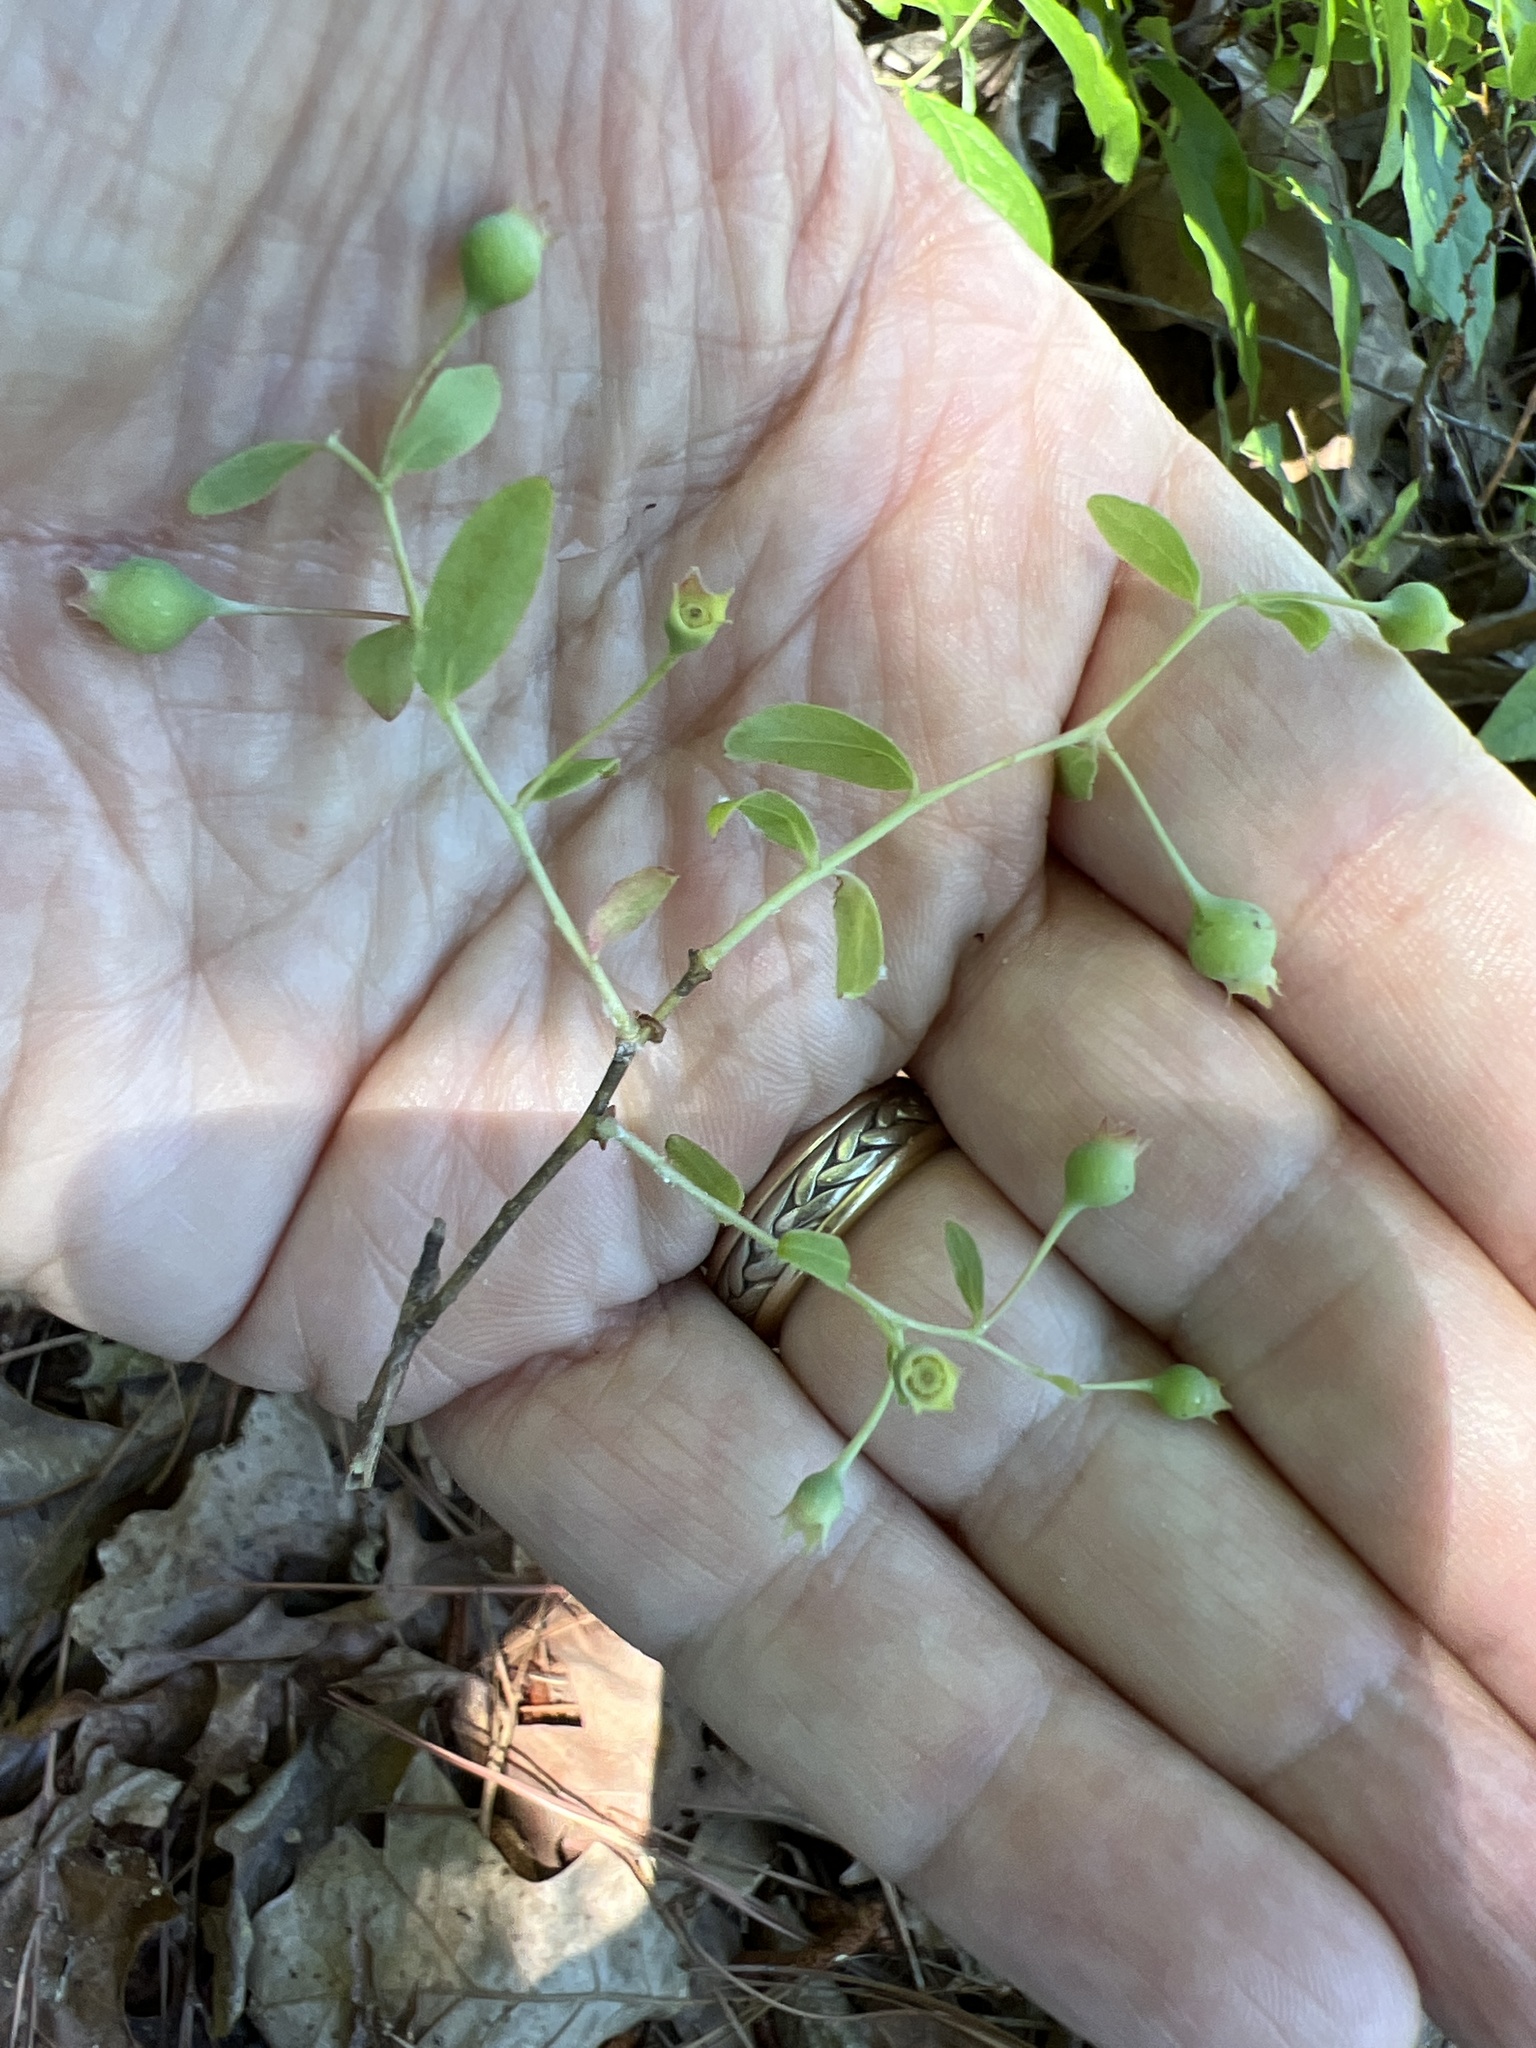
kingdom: Plantae
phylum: Tracheophyta
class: Magnoliopsida
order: Ericales
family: Ericaceae
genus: Vaccinium
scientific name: Vaccinium stamineum
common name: Deerberry
